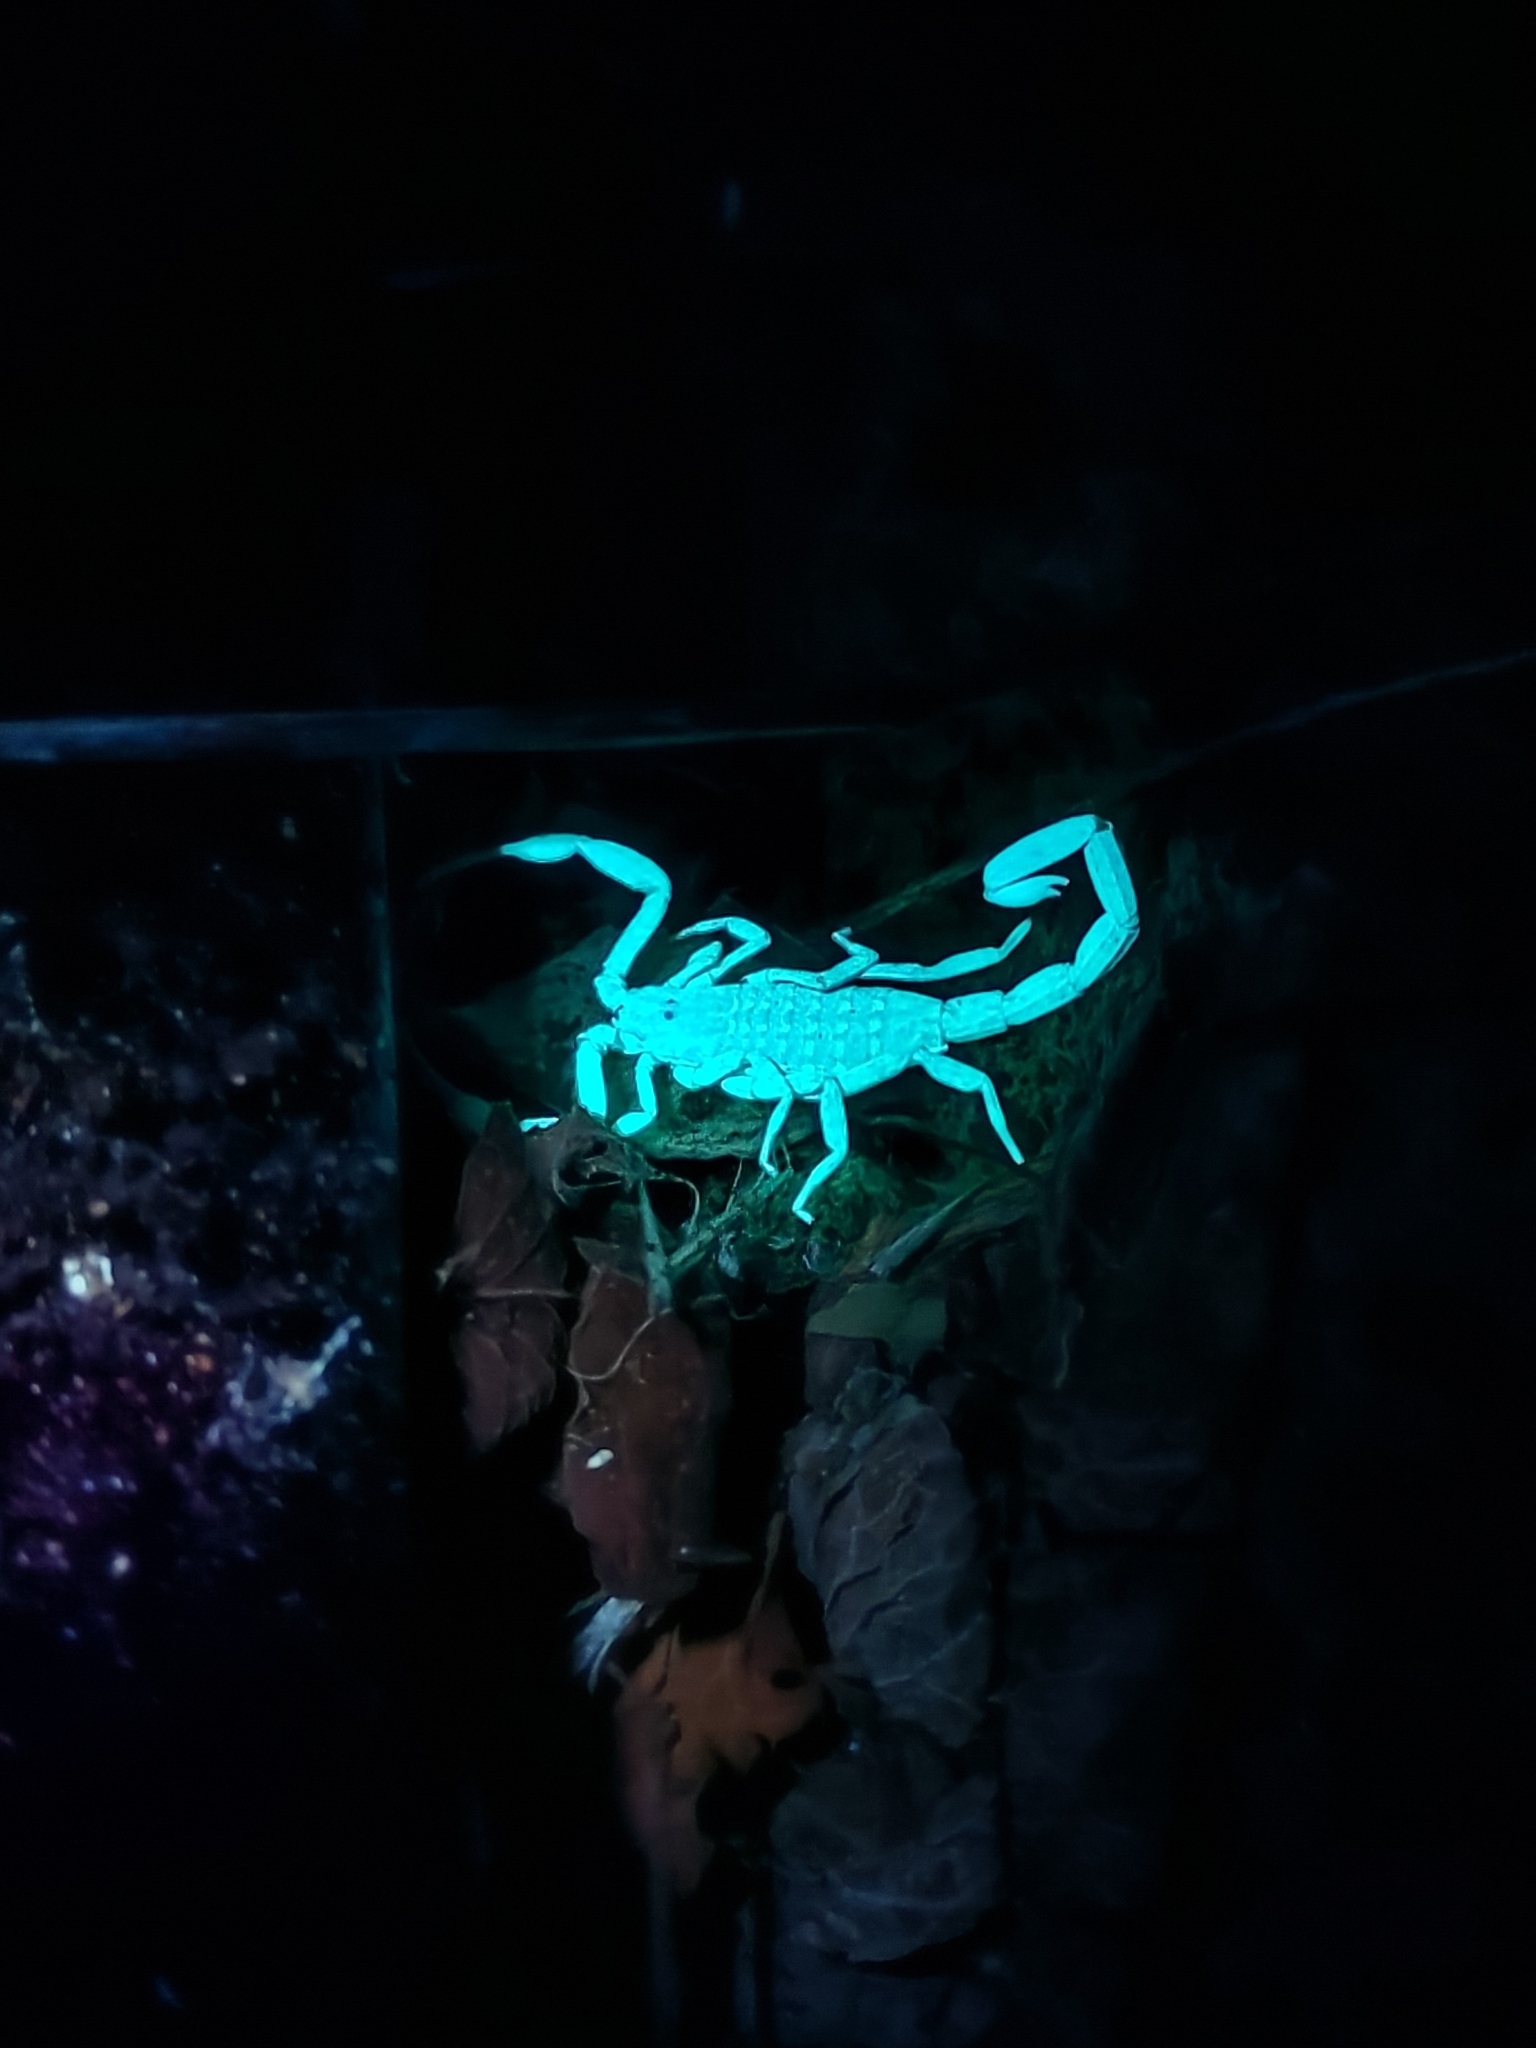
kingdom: Animalia
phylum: Arthropoda
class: Arachnida
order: Scorpiones
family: Buthidae
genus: Isometrus
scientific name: Isometrus maculatus
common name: Scorpions
